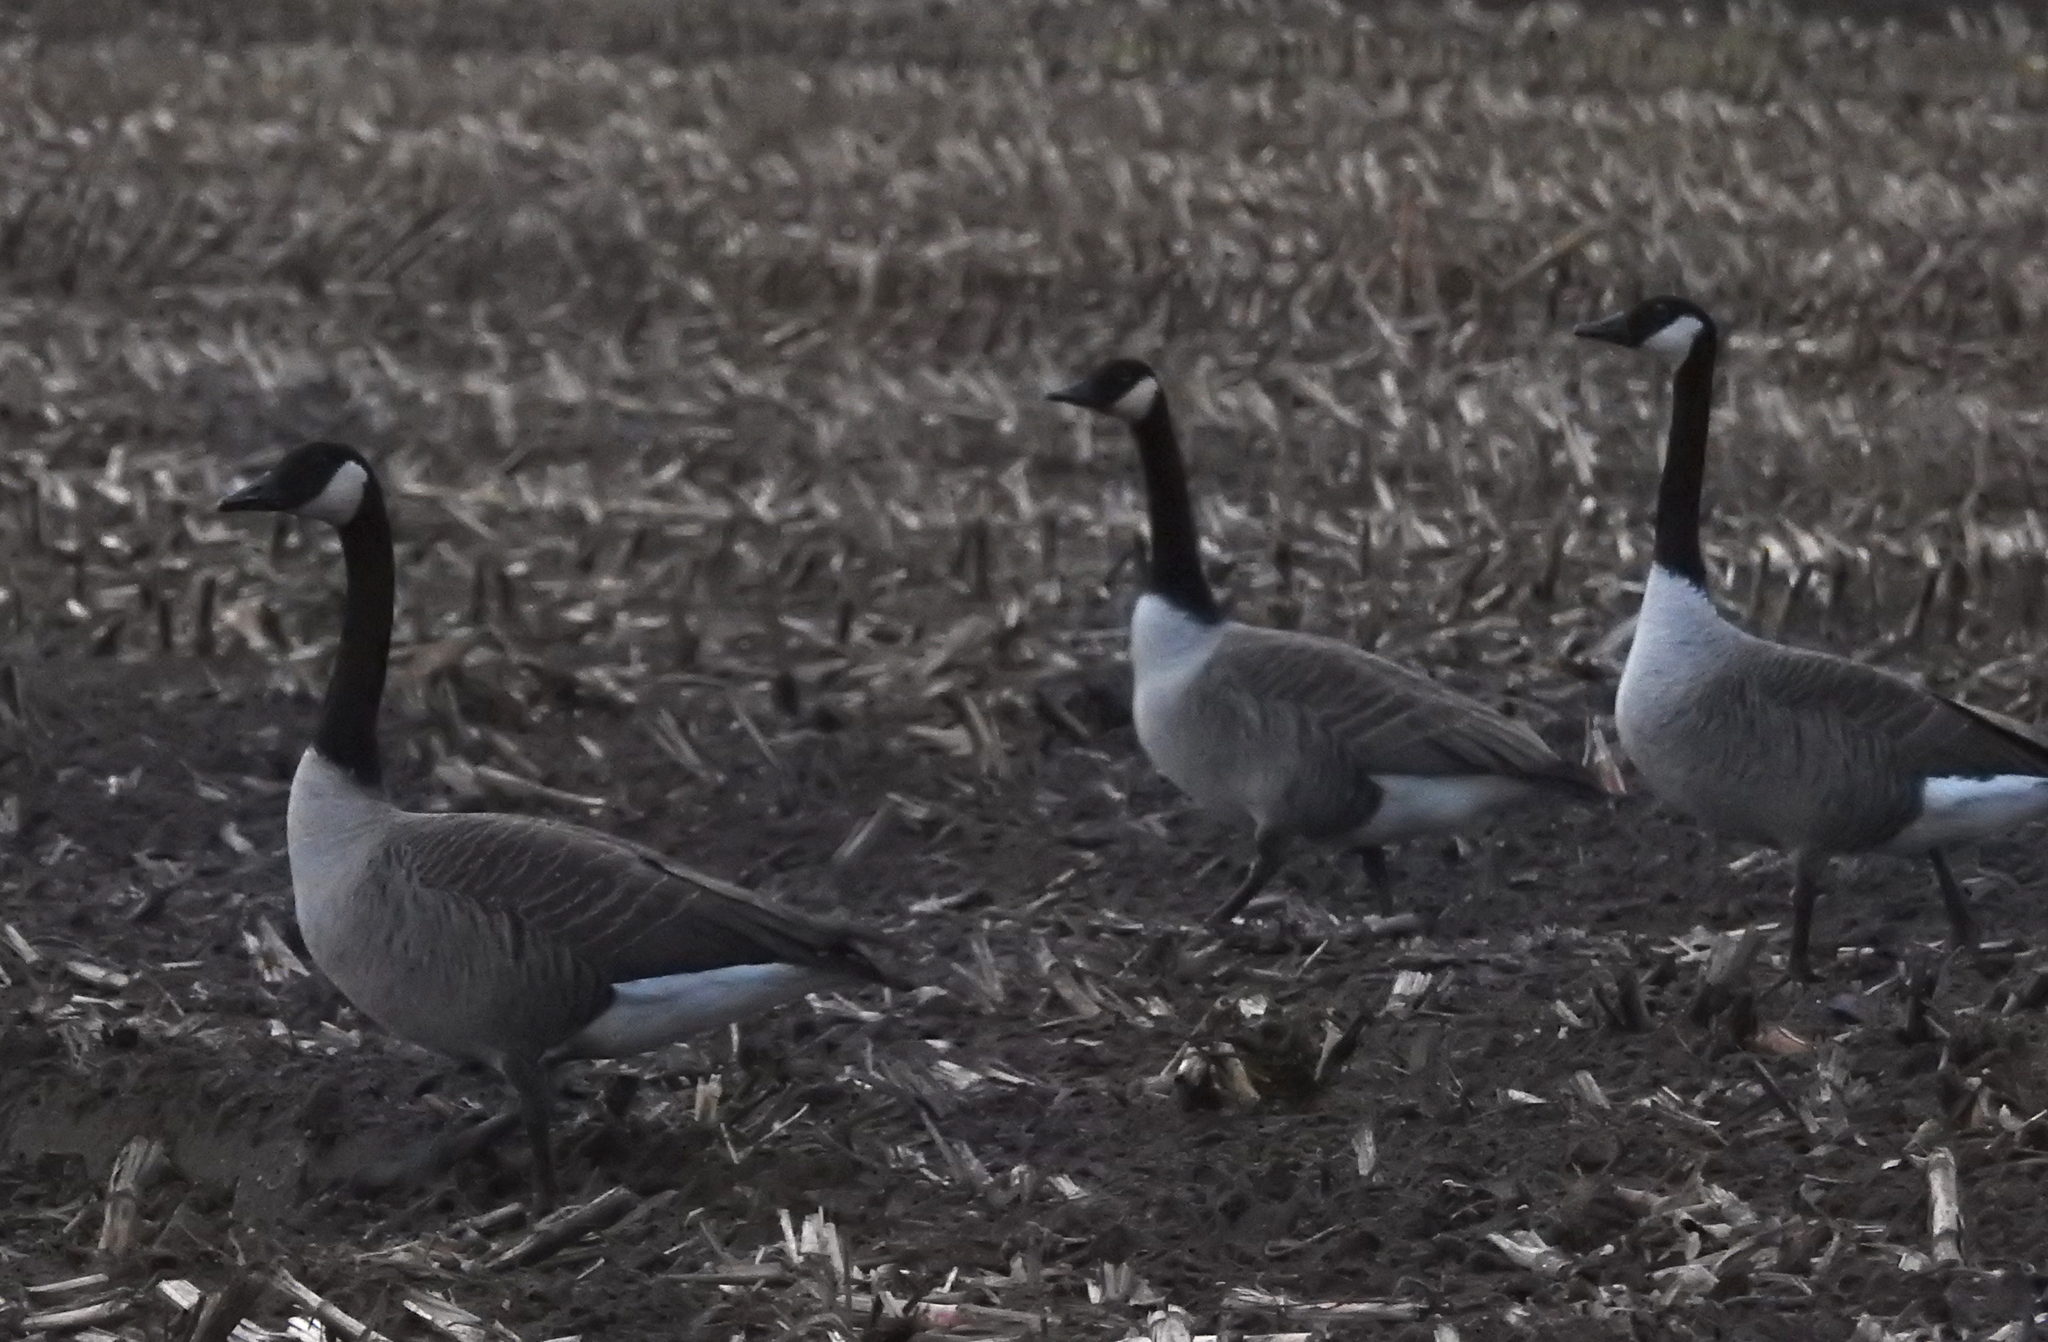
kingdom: Animalia
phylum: Chordata
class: Aves
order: Anseriformes
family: Anatidae
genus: Branta
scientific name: Branta canadensis
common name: Canada goose
